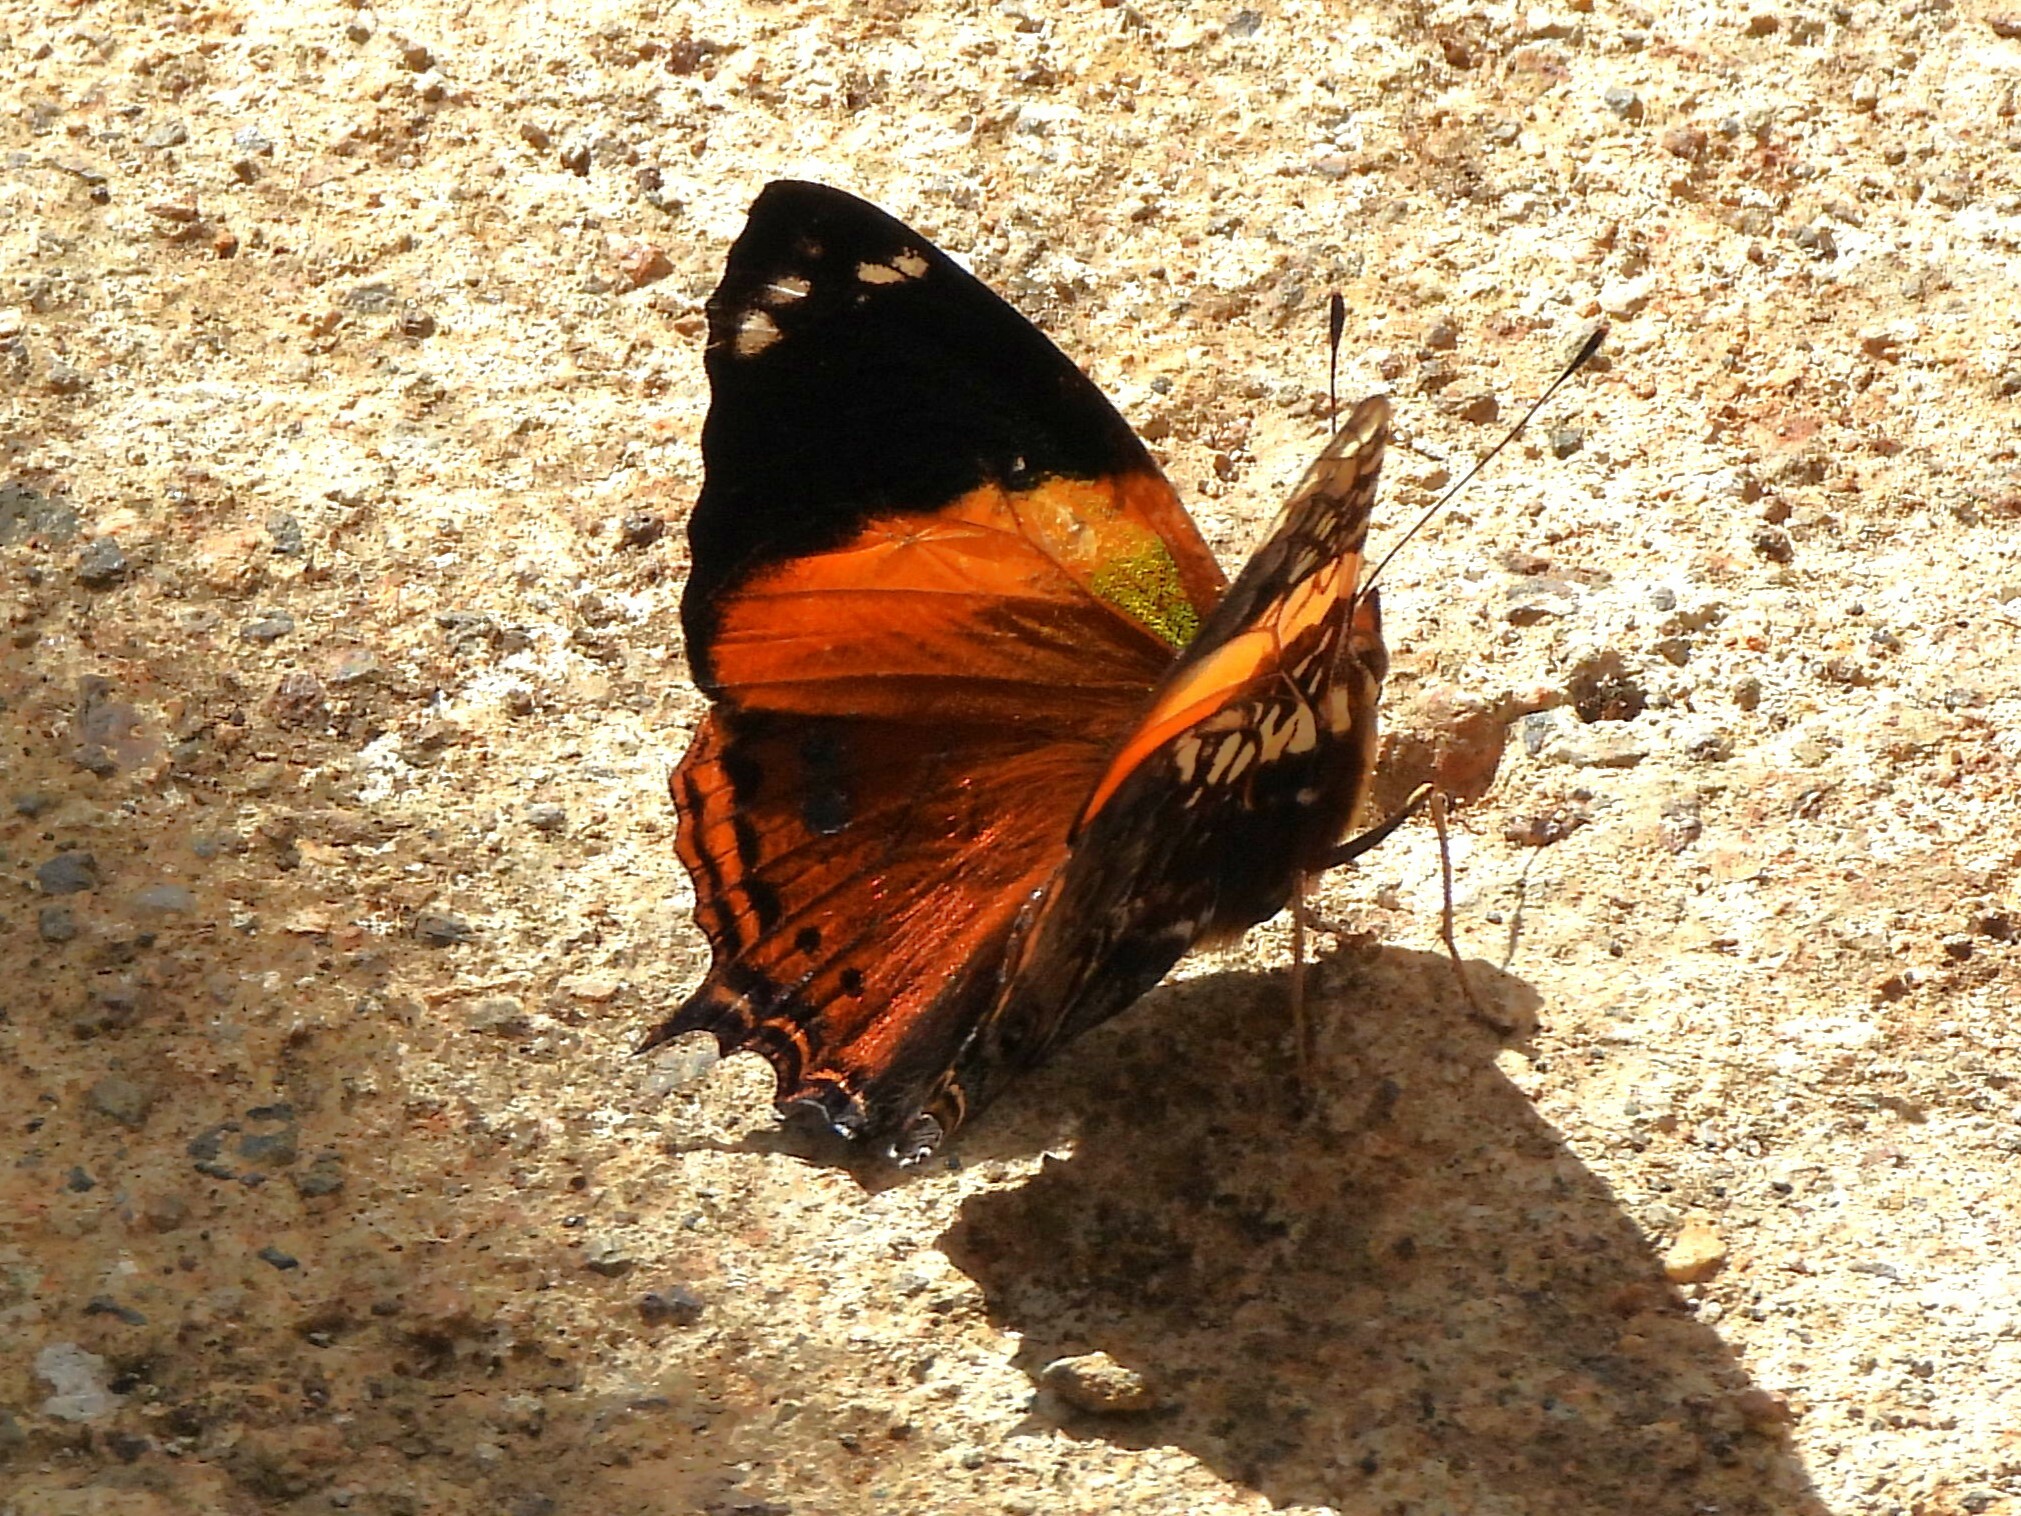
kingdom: Animalia
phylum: Arthropoda
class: Insecta
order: Lepidoptera
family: Nymphalidae
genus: Hypanartia
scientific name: Hypanartia godmanii
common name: Godman's mapwing
